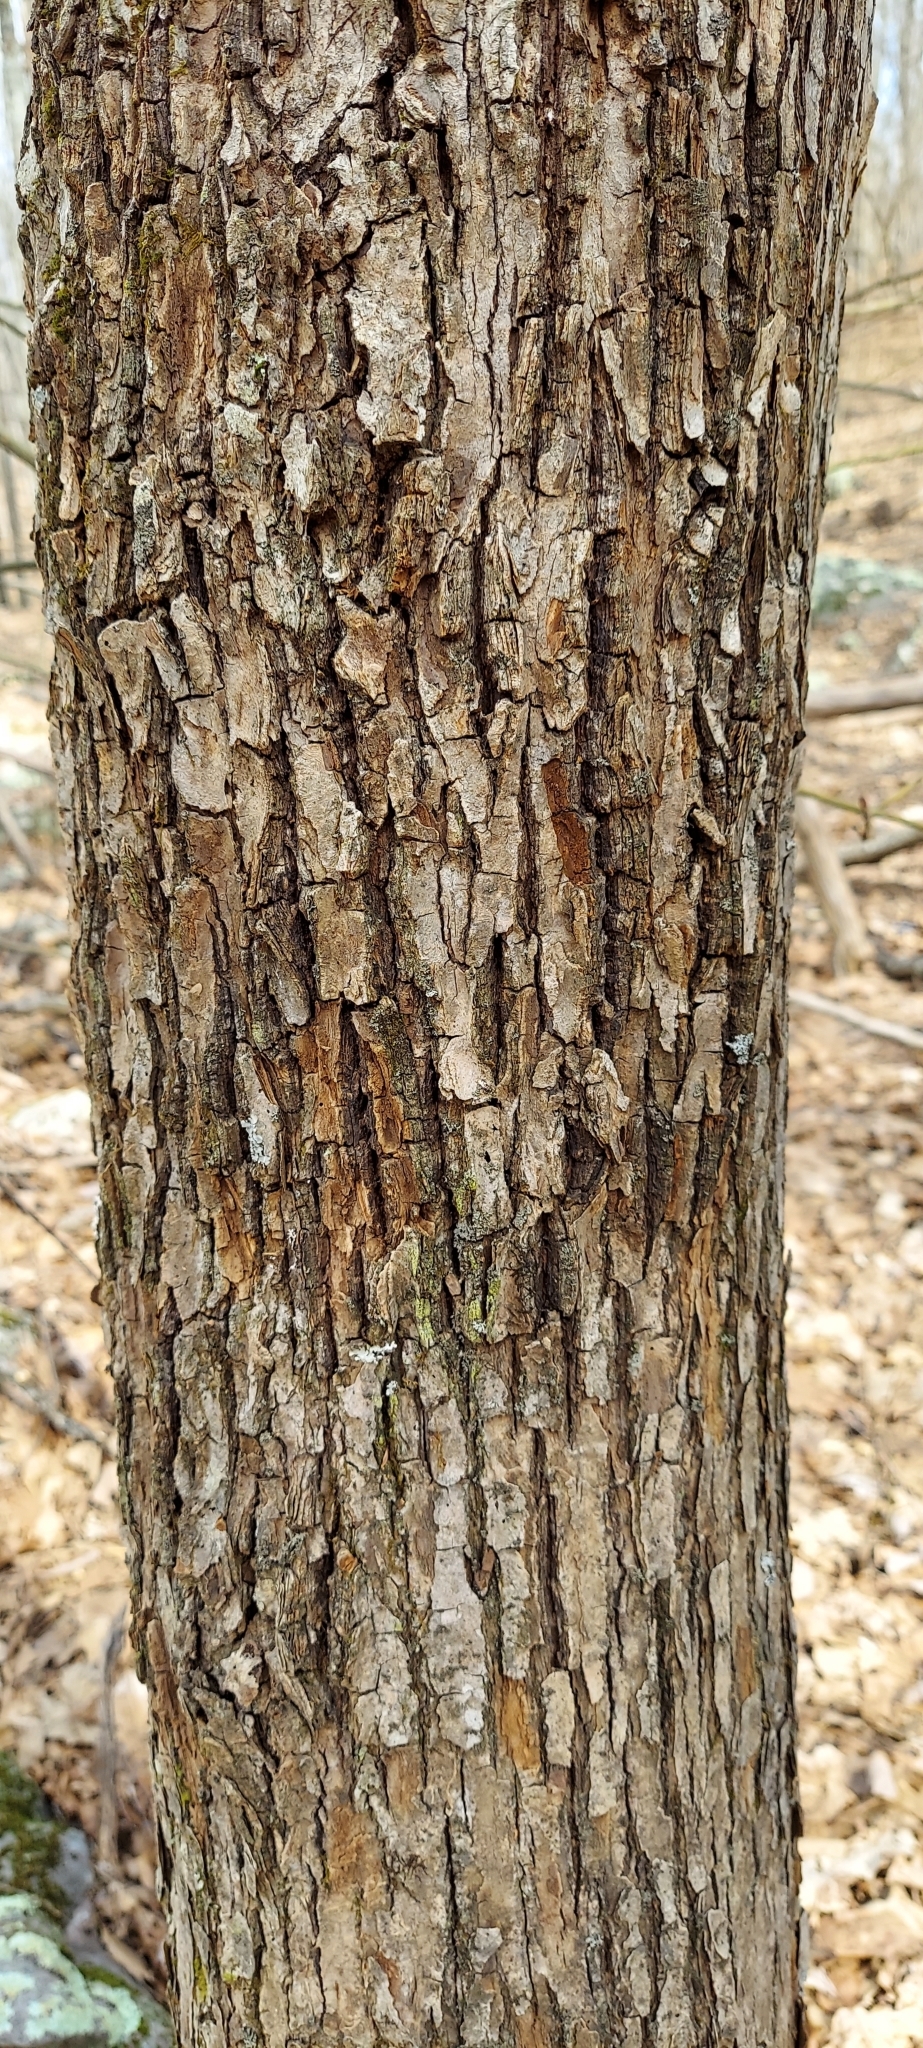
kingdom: Plantae
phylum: Tracheophyta
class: Magnoliopsida
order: Magnoliales
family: Magnoliaceae
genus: Magnolia
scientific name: Magnolia acuminata
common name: Cucumber magnolia
